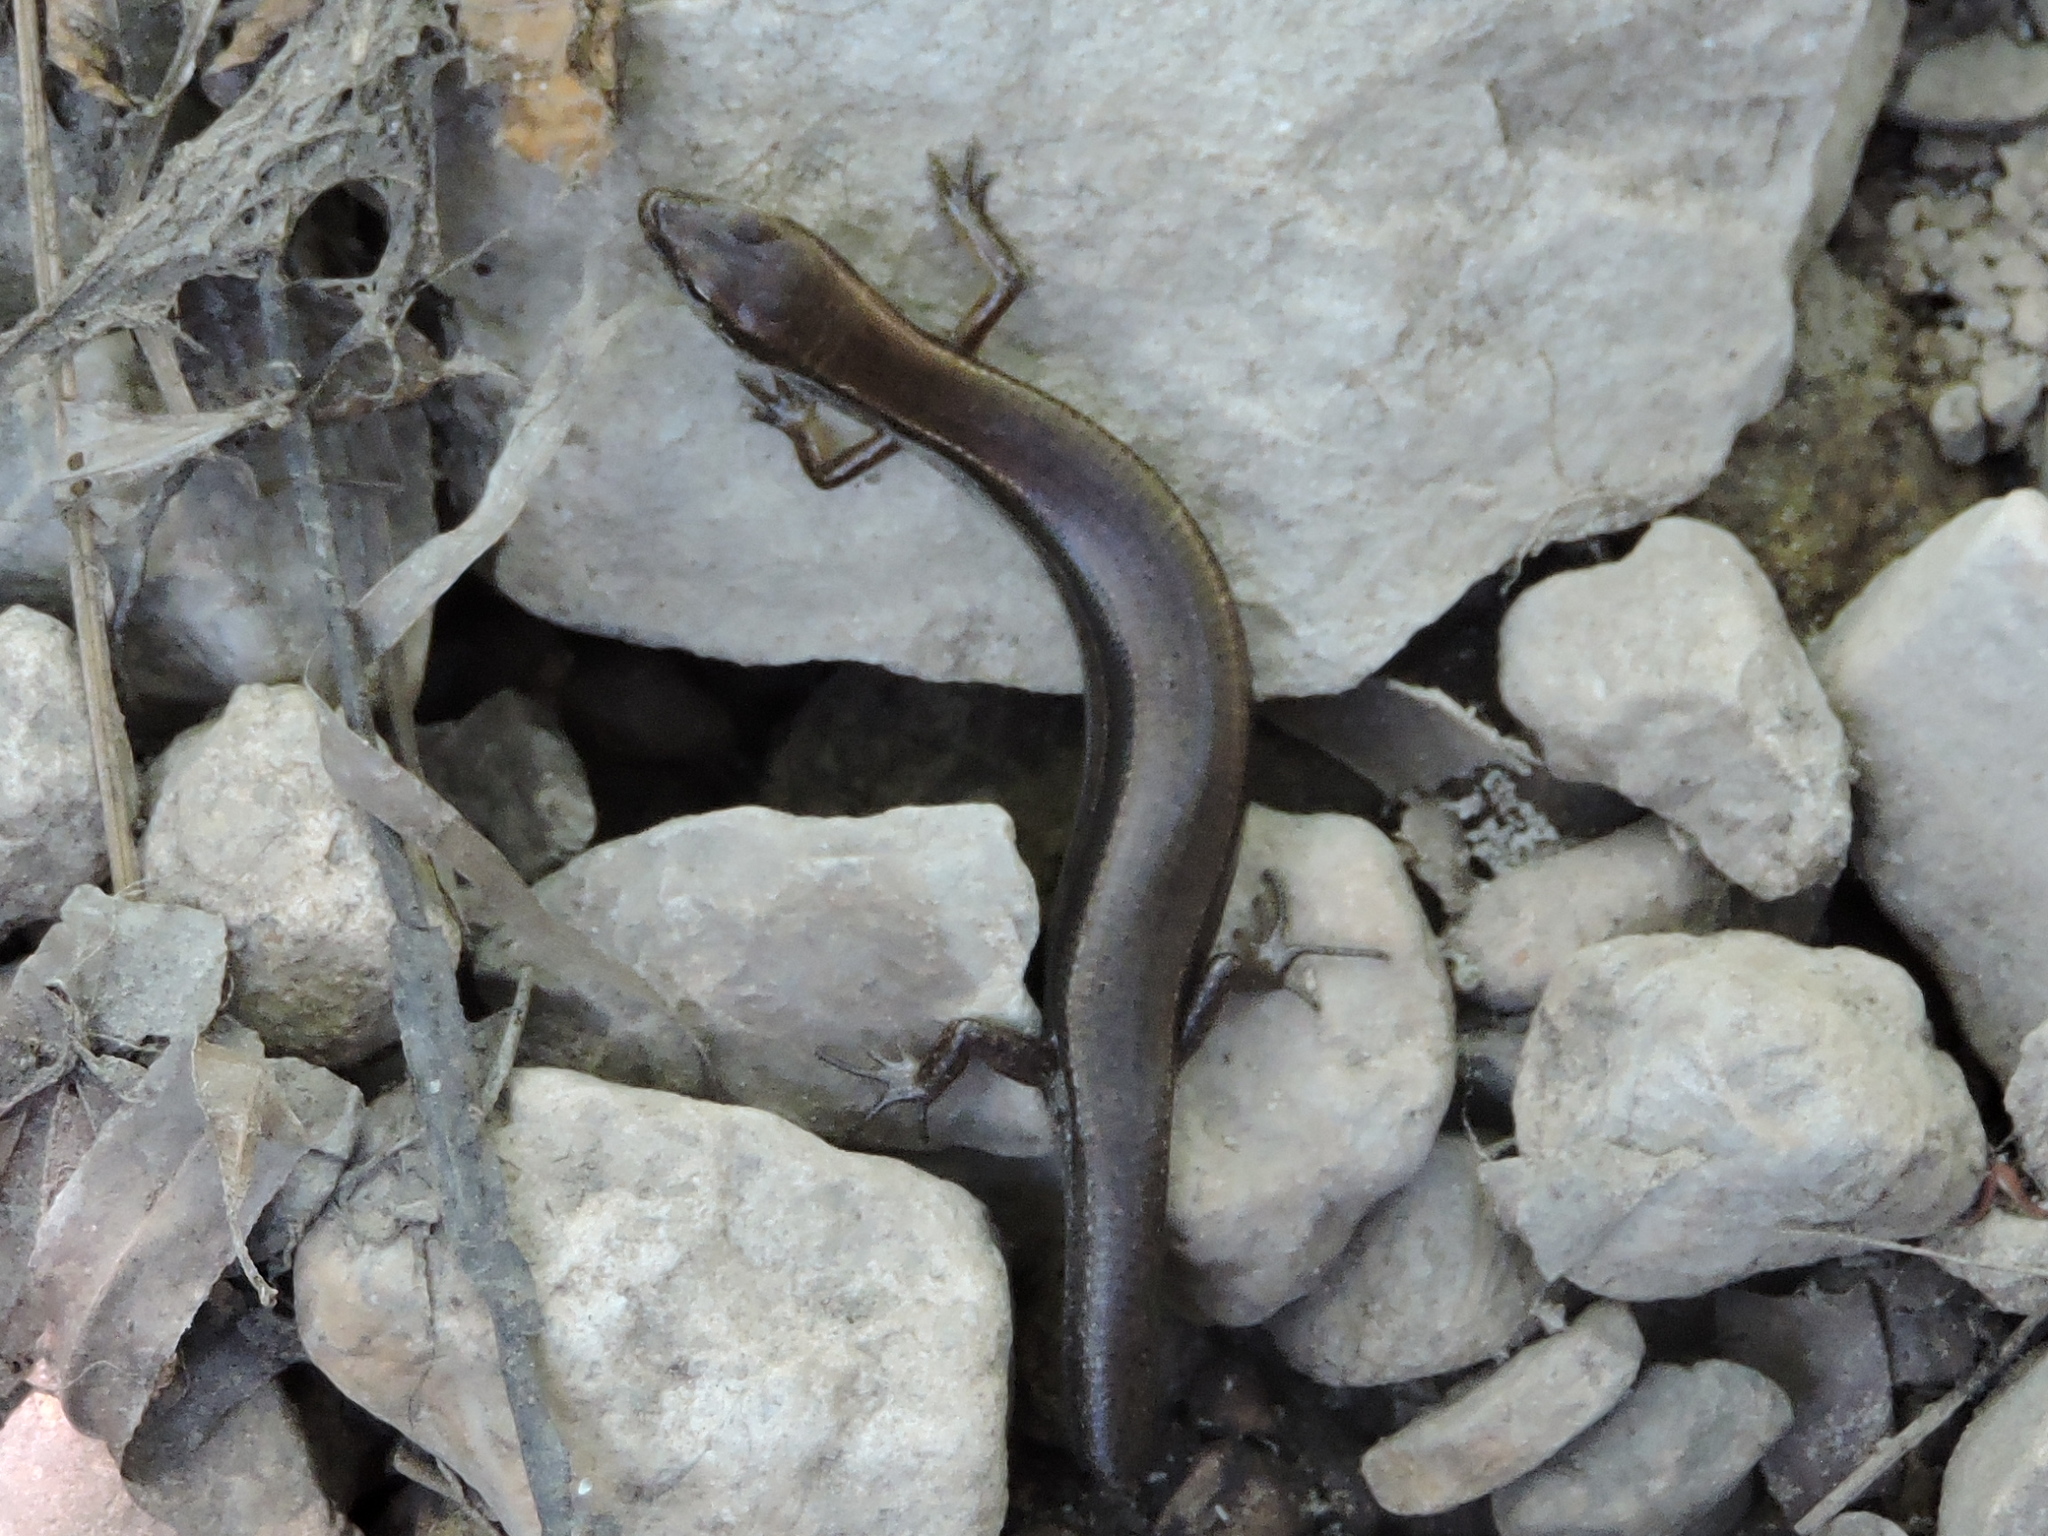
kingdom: Animalia
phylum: Chordata
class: Squamata
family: Scincidae
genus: Scincella
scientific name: Scincella lateralis
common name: Ground skink
